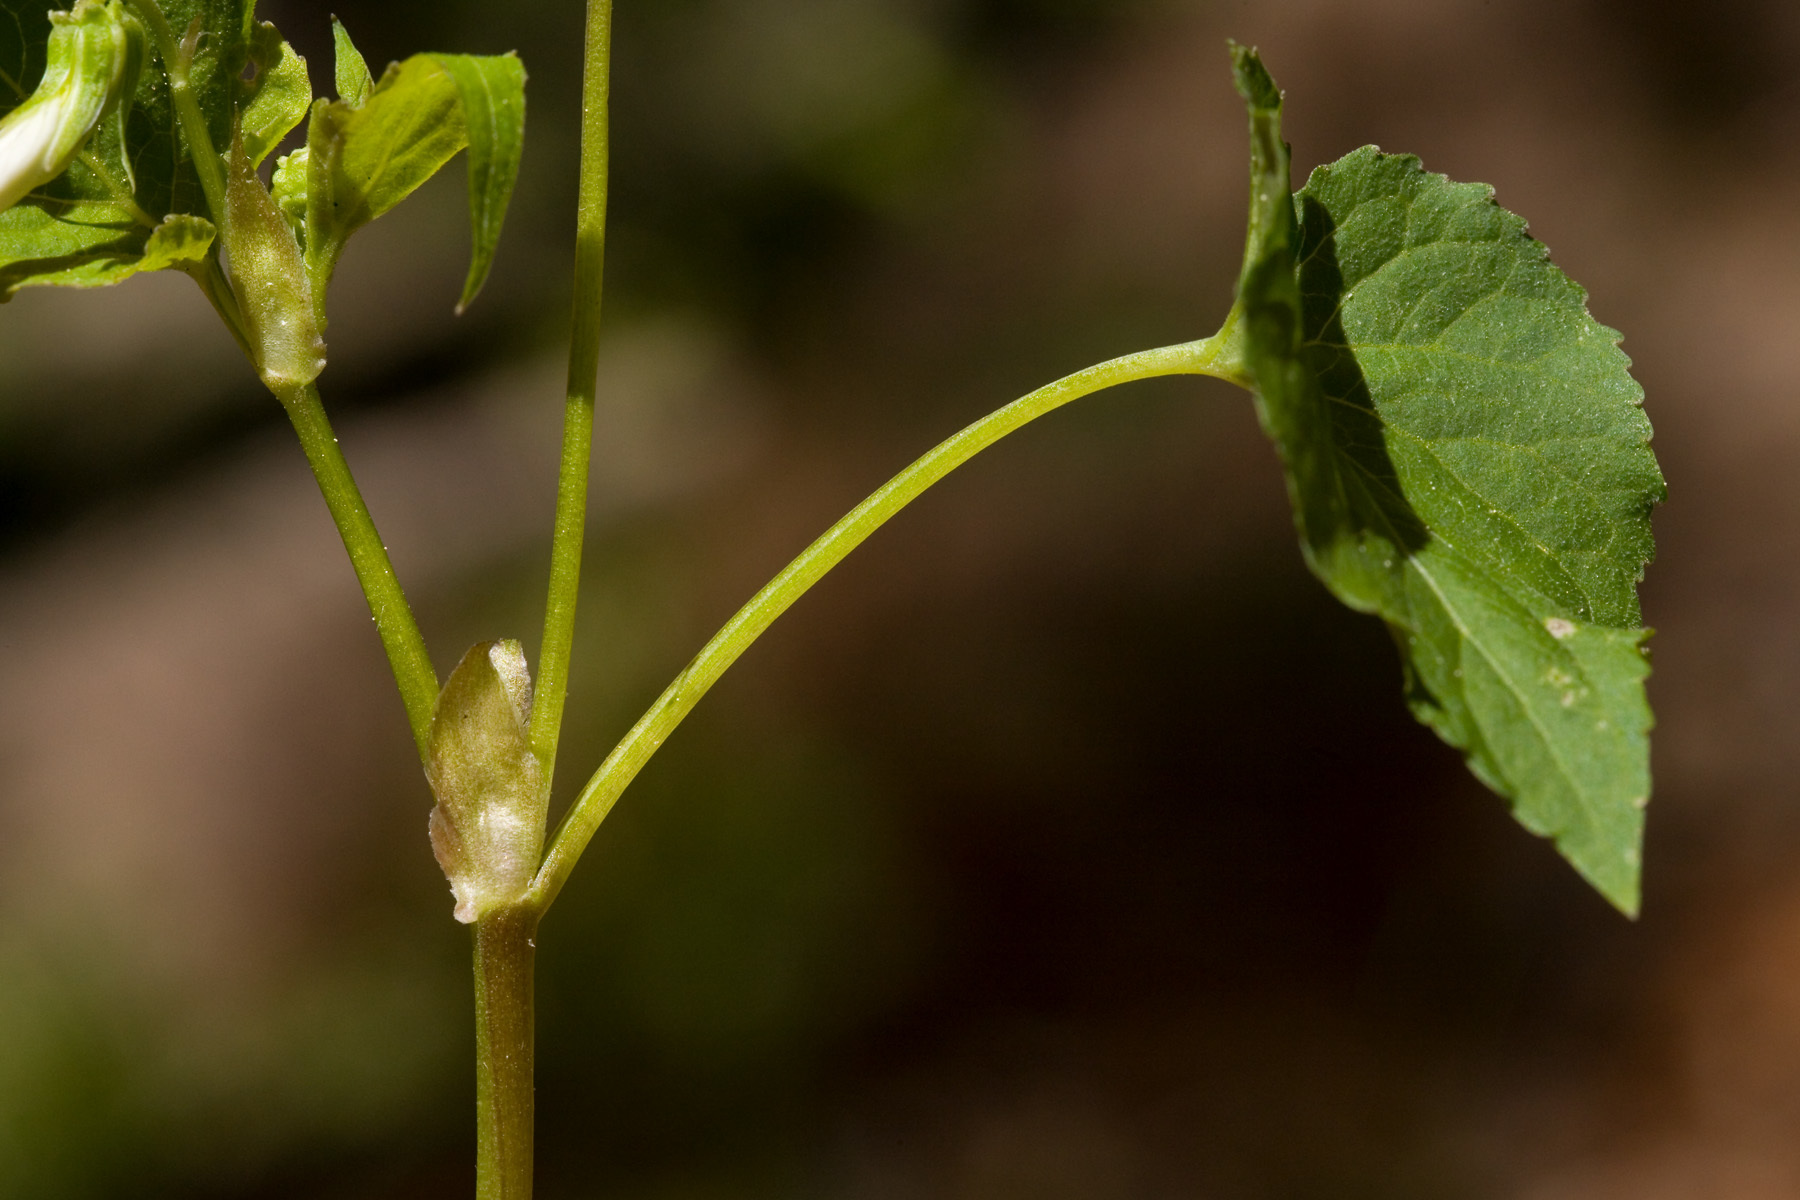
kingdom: Plantae
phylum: Tracheophyta
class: Magnoliopsida
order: Malpighiales
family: Violaceae
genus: Viola
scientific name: Viola canadensis
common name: Canada violet
